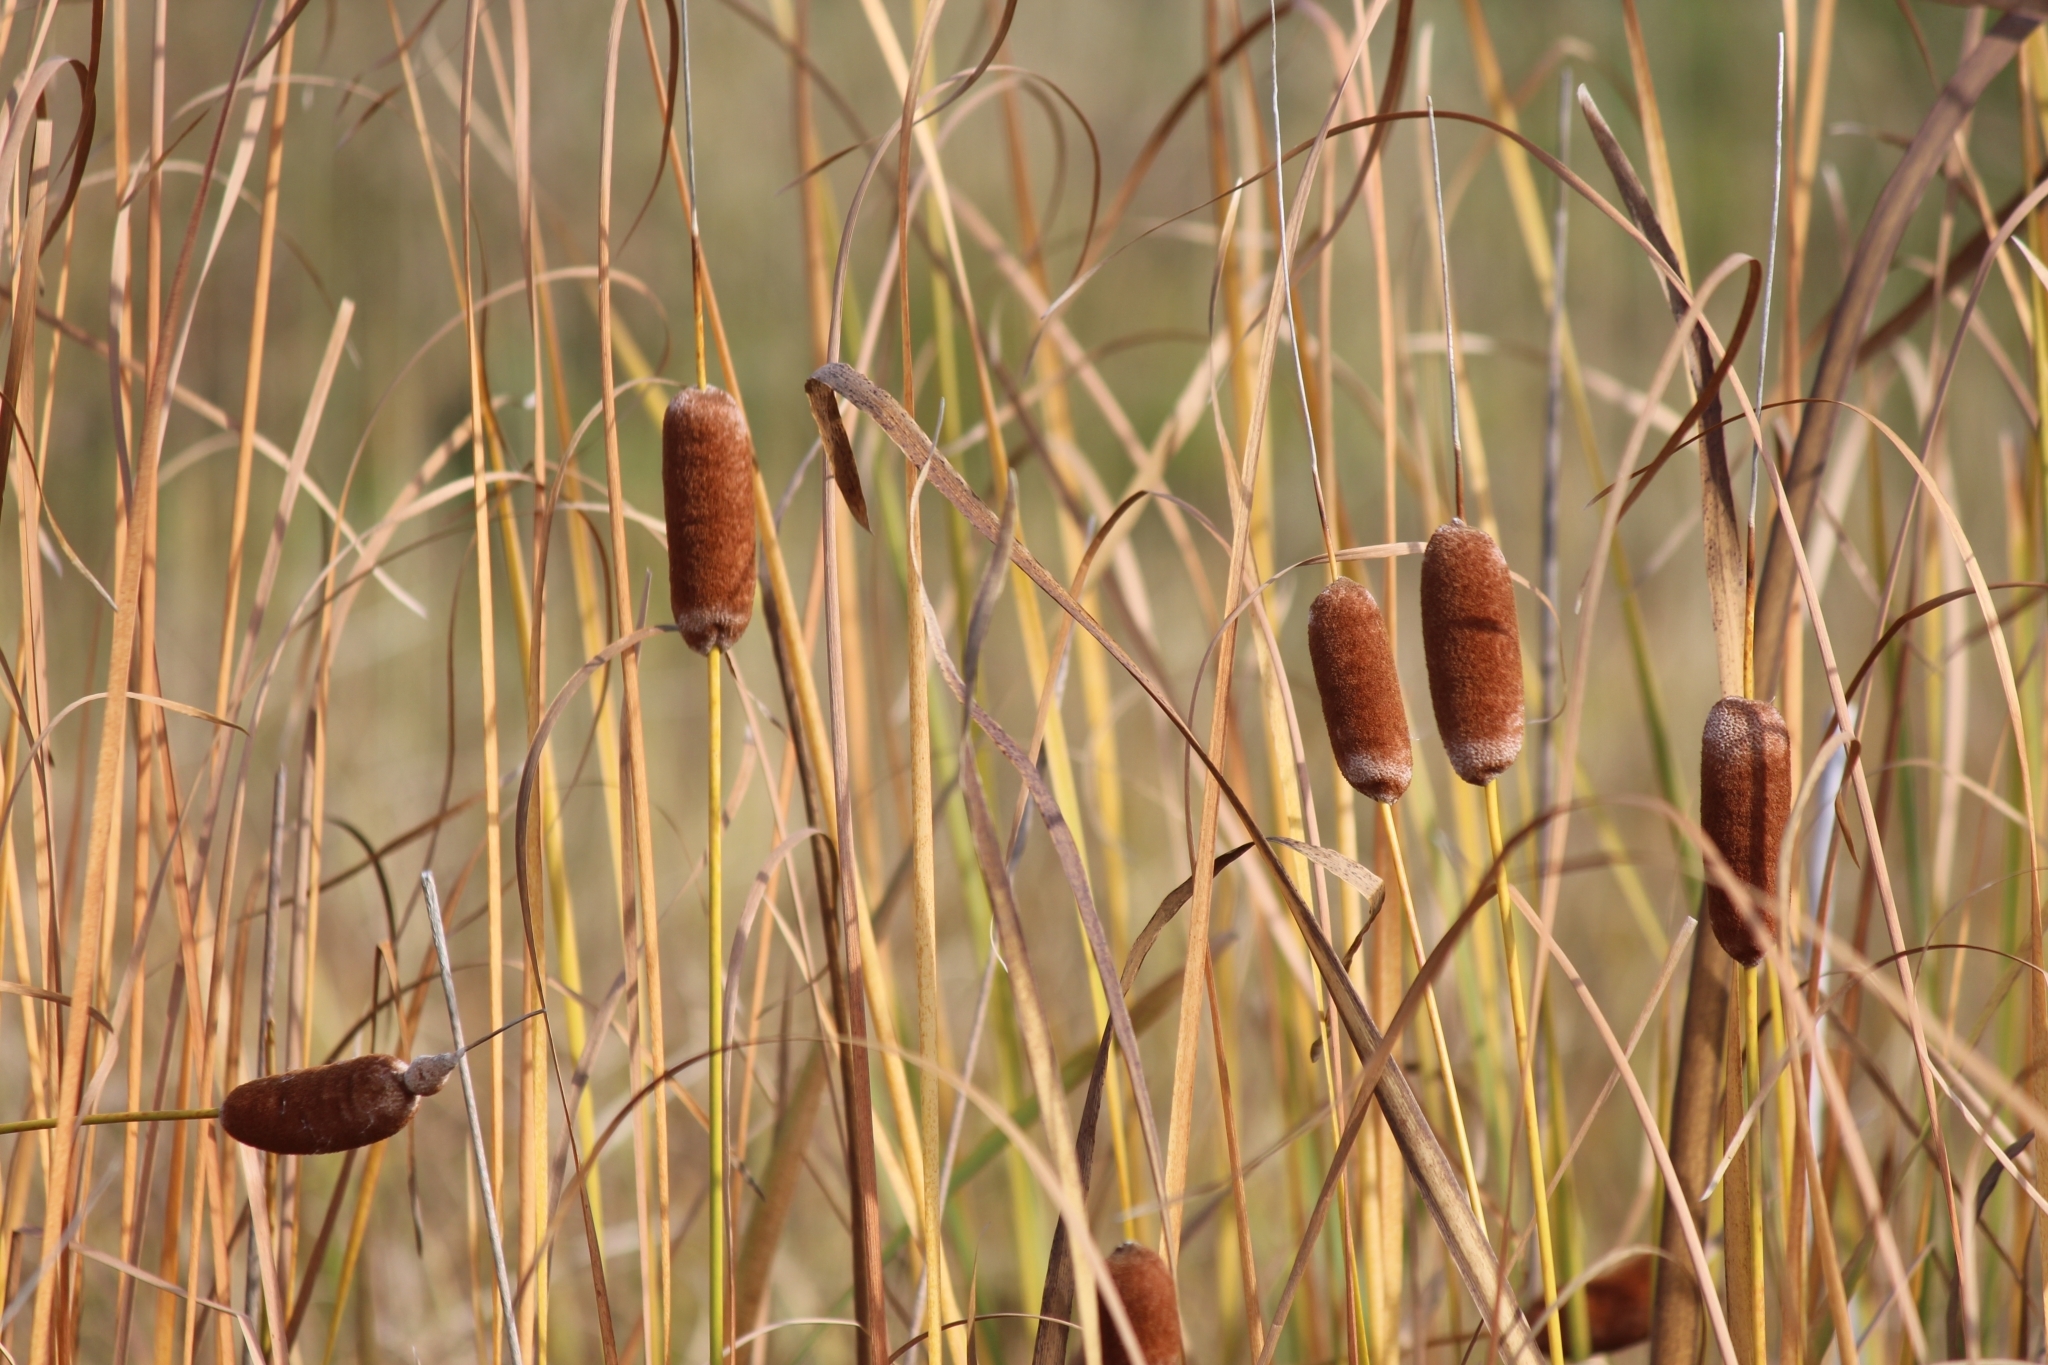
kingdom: Plantae
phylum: Tracheophyta
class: Liliopsida
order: Poales
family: Typhaceae
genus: Typha
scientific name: Typha laxmannii
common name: Laxman’s bulrush
